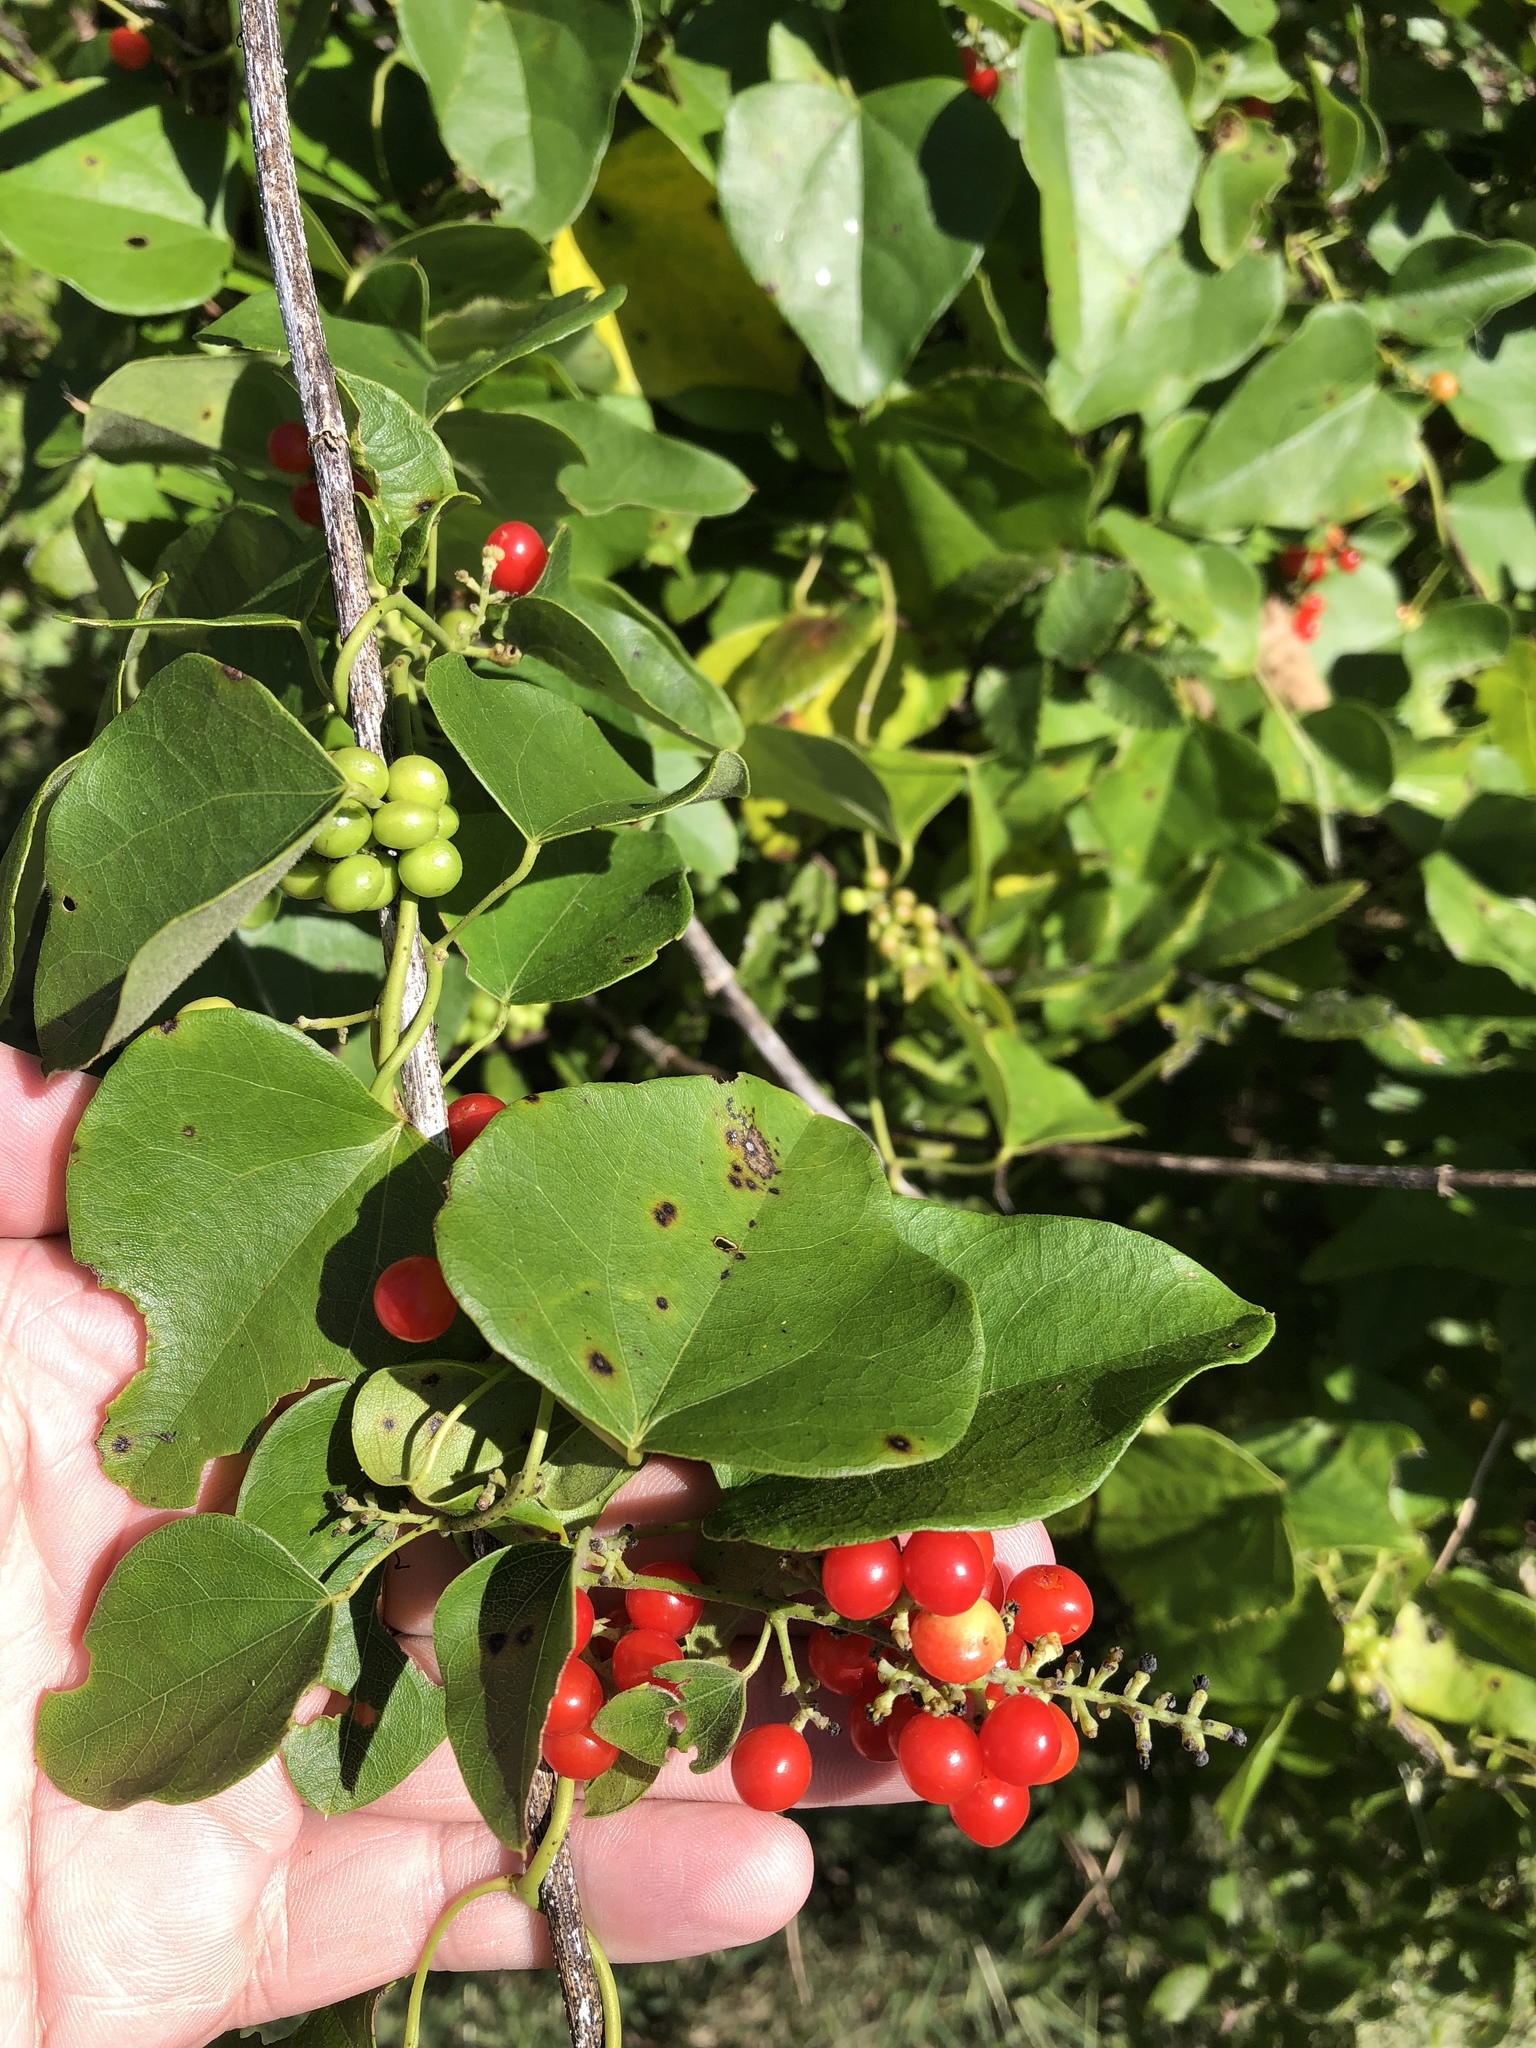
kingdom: Plantae
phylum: Tracheophyta
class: Magnoliopsida
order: Ranunculales
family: Menispermaceae
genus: Cocculus
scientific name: Cocculus carolinus
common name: Carolina moonseed
